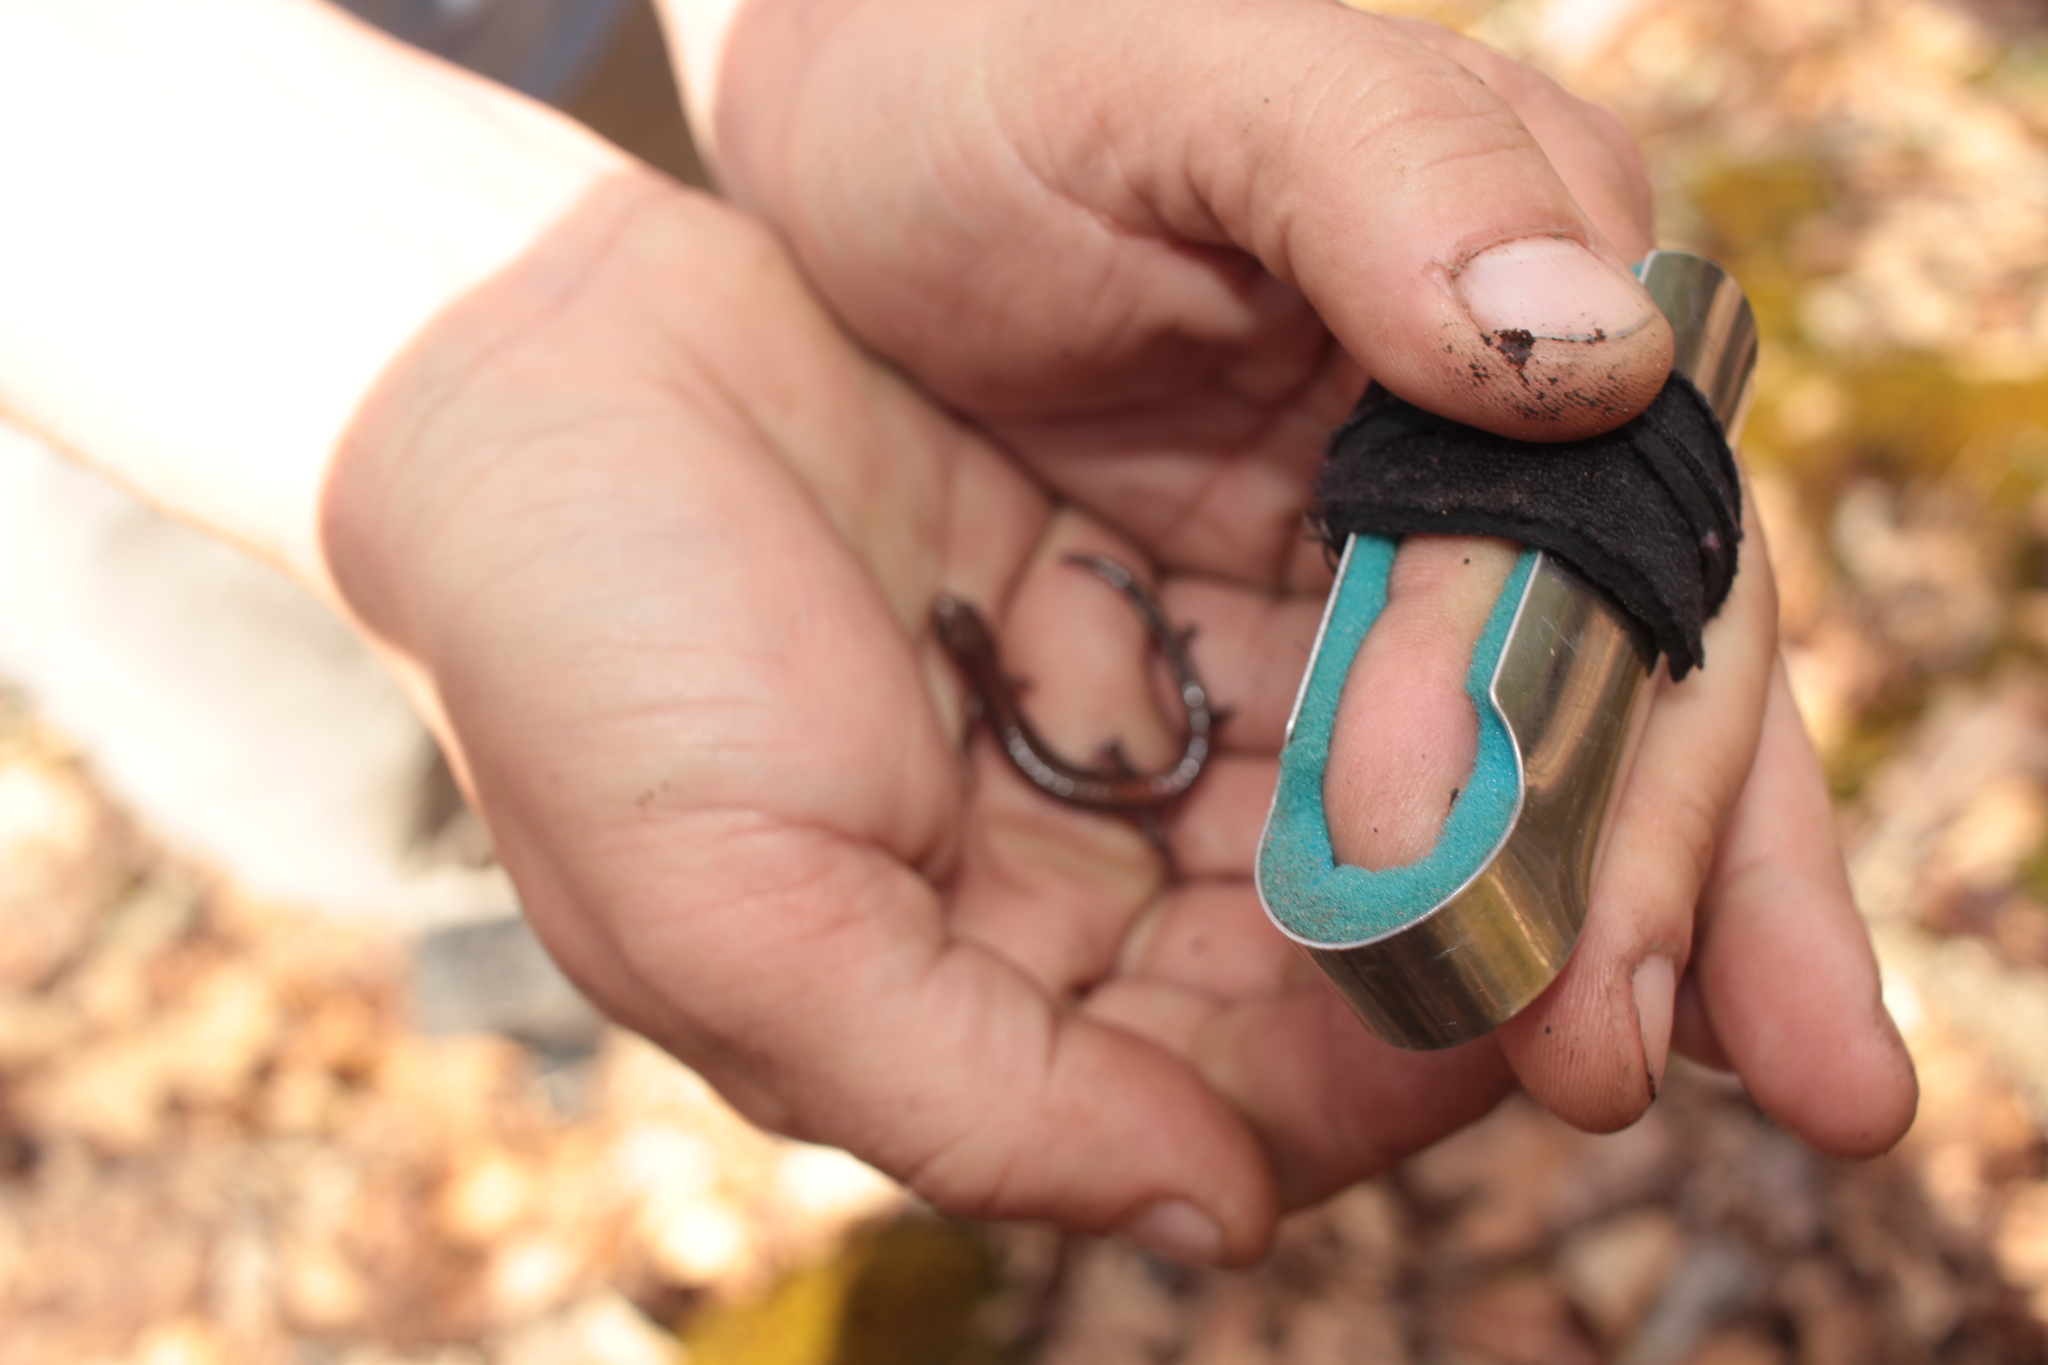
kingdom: Animalia
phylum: Chordata
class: Amphibia
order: Caudata
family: Plethodontidae
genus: Plethodon
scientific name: Plethodon sherando
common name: Big levels salamander
